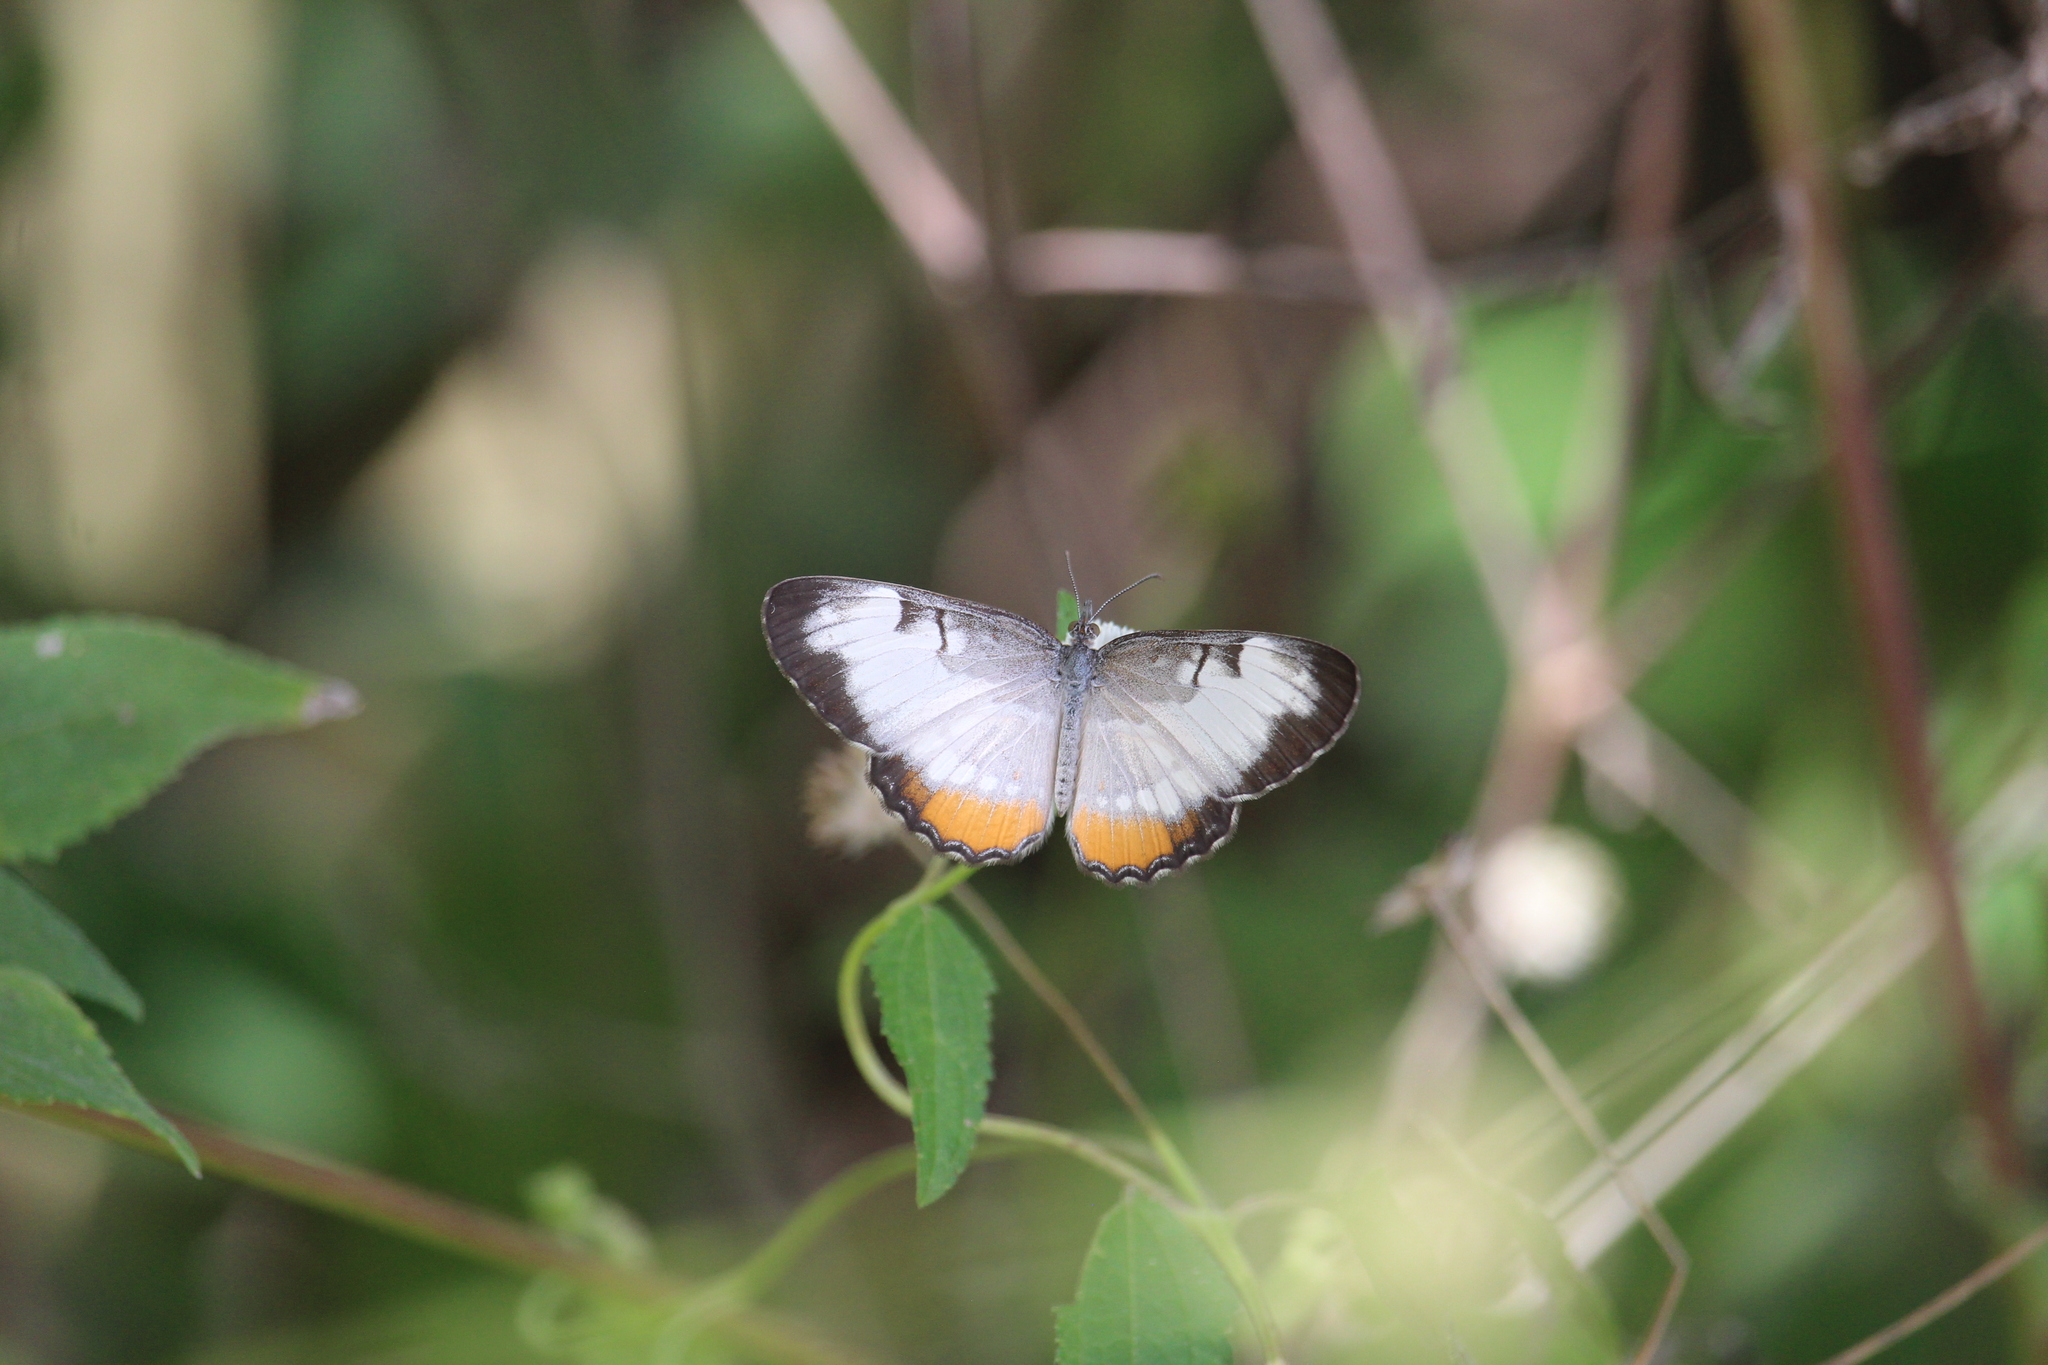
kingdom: Animalia
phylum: Arthropoda
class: Insecta
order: Lepidoptera
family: Nymphalidae
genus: Mestra
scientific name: Mestra amymone
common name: Common mestra
